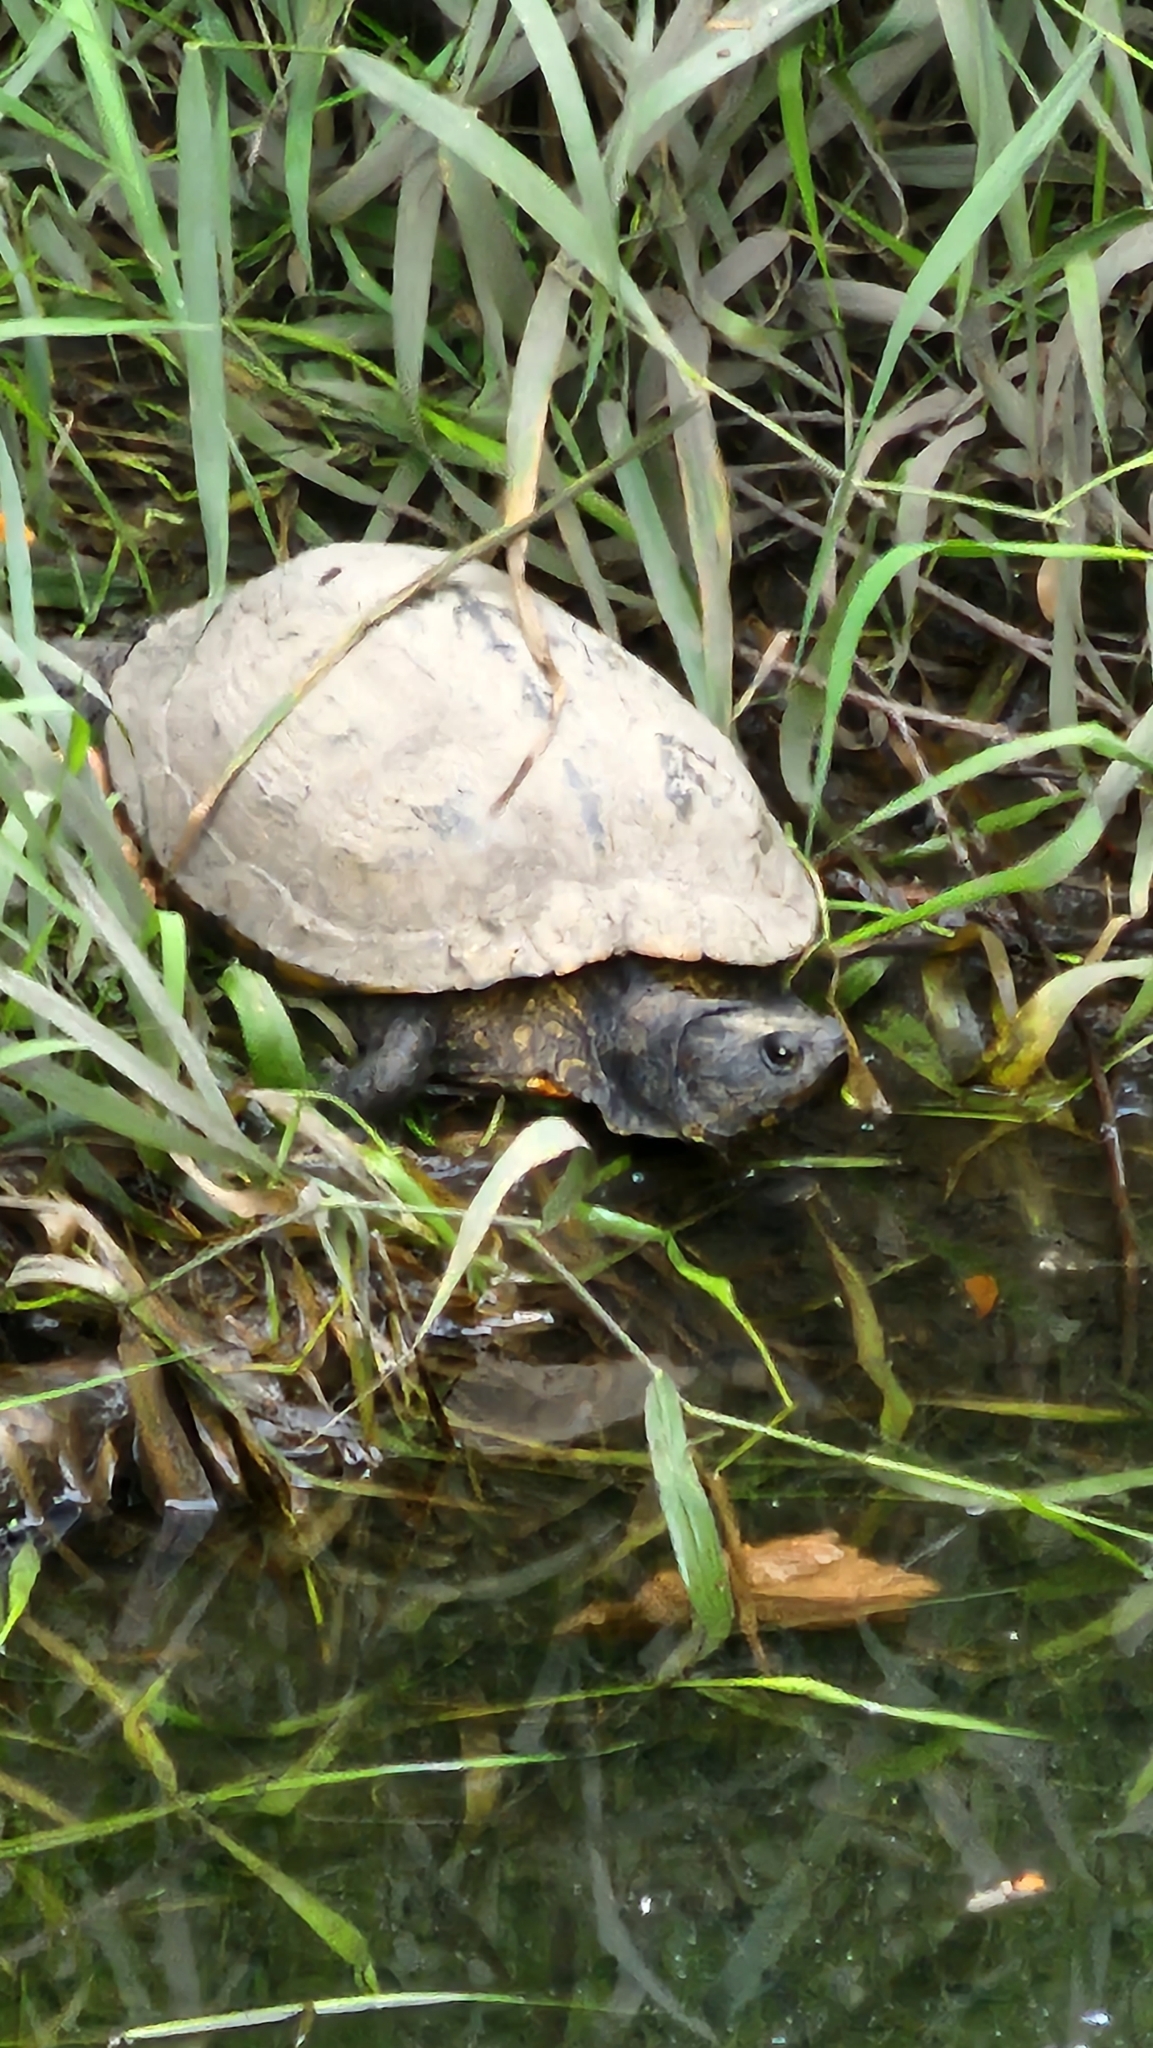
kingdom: Animalia
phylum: Chordata
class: Testudines
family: Emydidae
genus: Trachemys
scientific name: Trachemys scripta
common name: Slider
